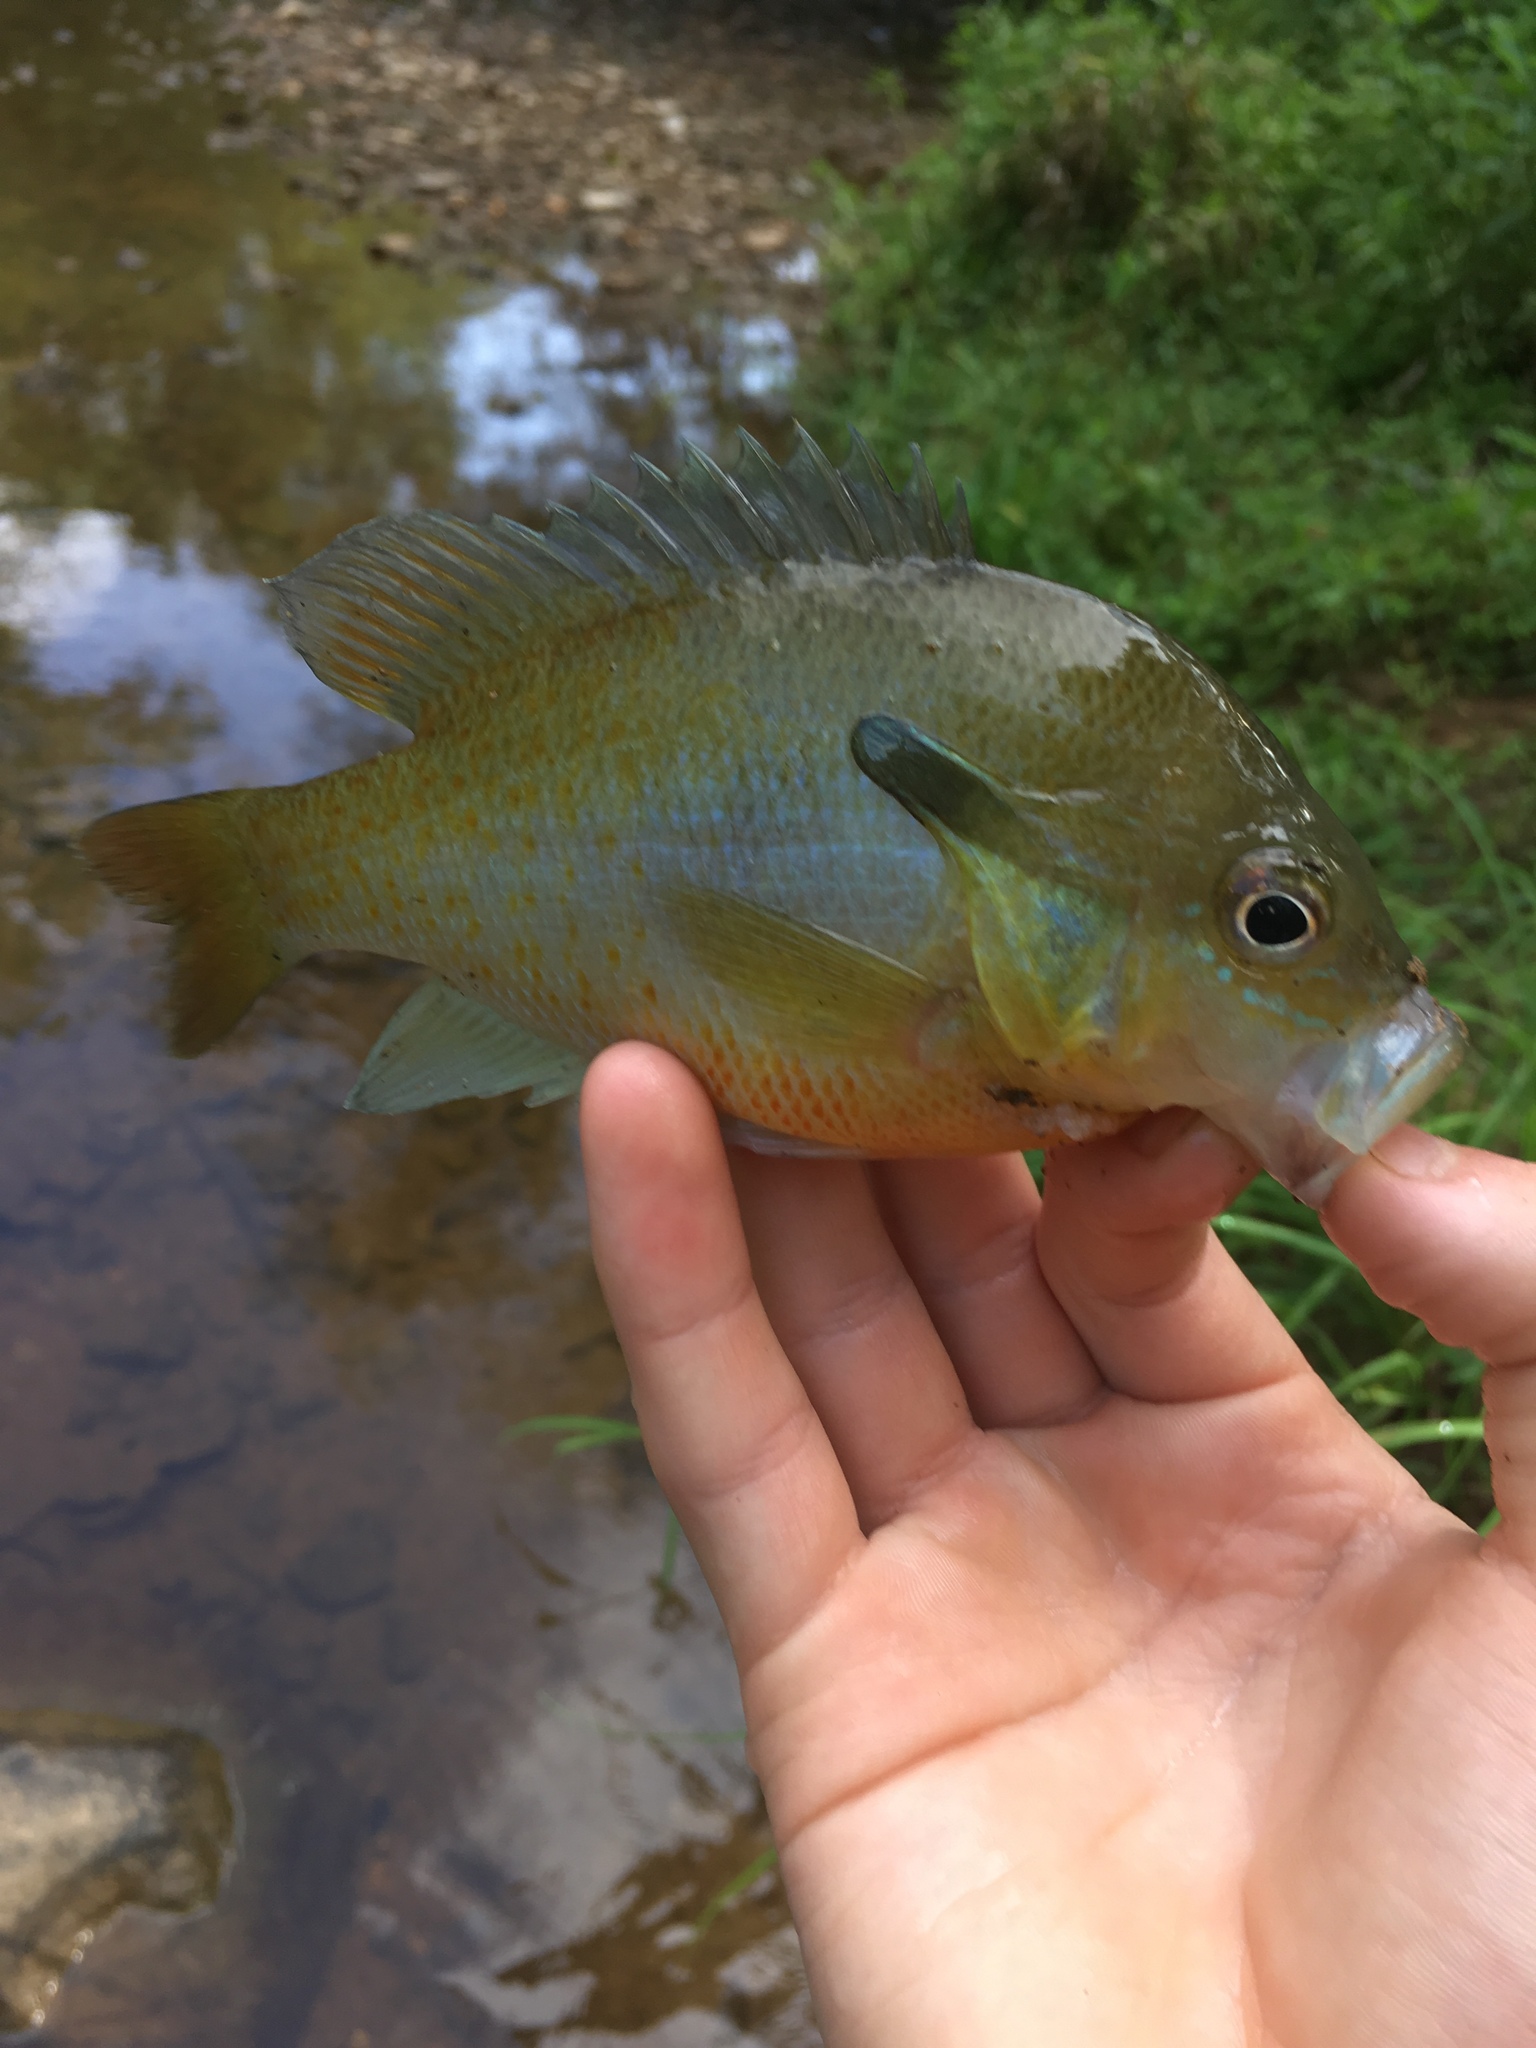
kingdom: Animalia
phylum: Chordata
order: Perciformes
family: Centrarchidae
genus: Lepomis
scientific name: Lepomis auritus
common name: Redbreast sunfish
